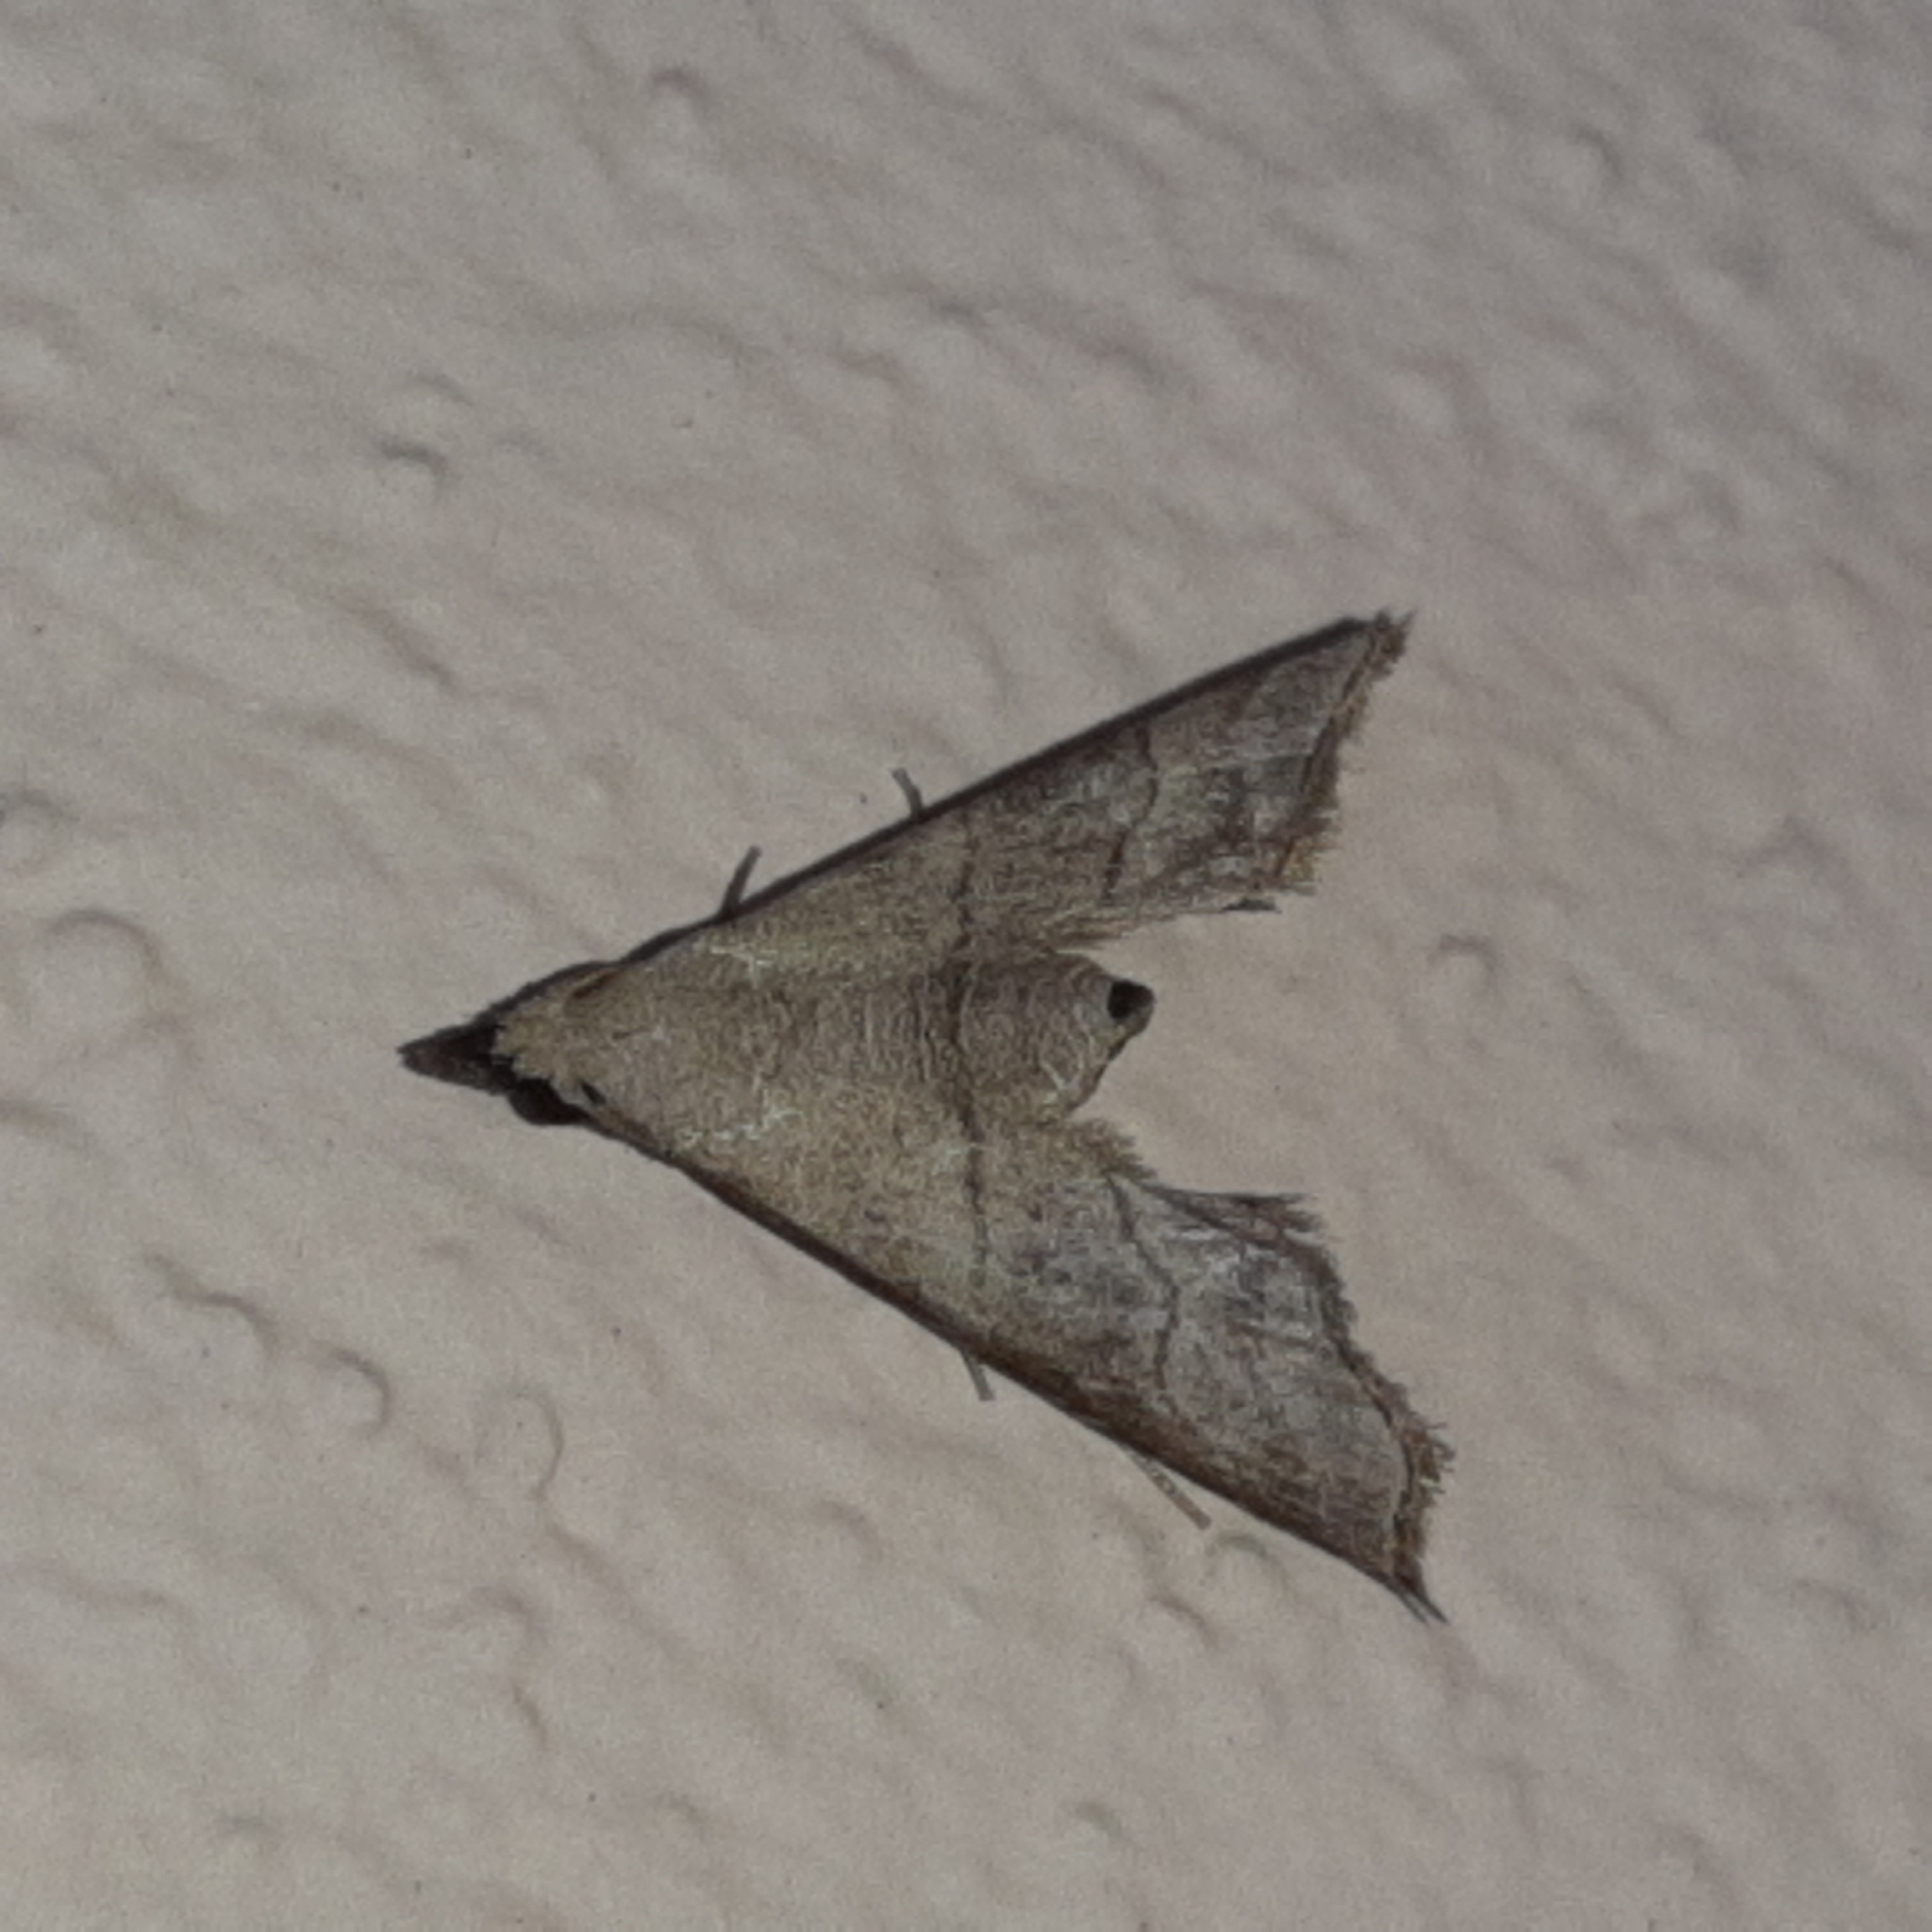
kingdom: Animalia
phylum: Arthropoda
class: Insecta
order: Lepidoptera
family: Noctuidae
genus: Lambana
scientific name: Lambana cucullatalis
